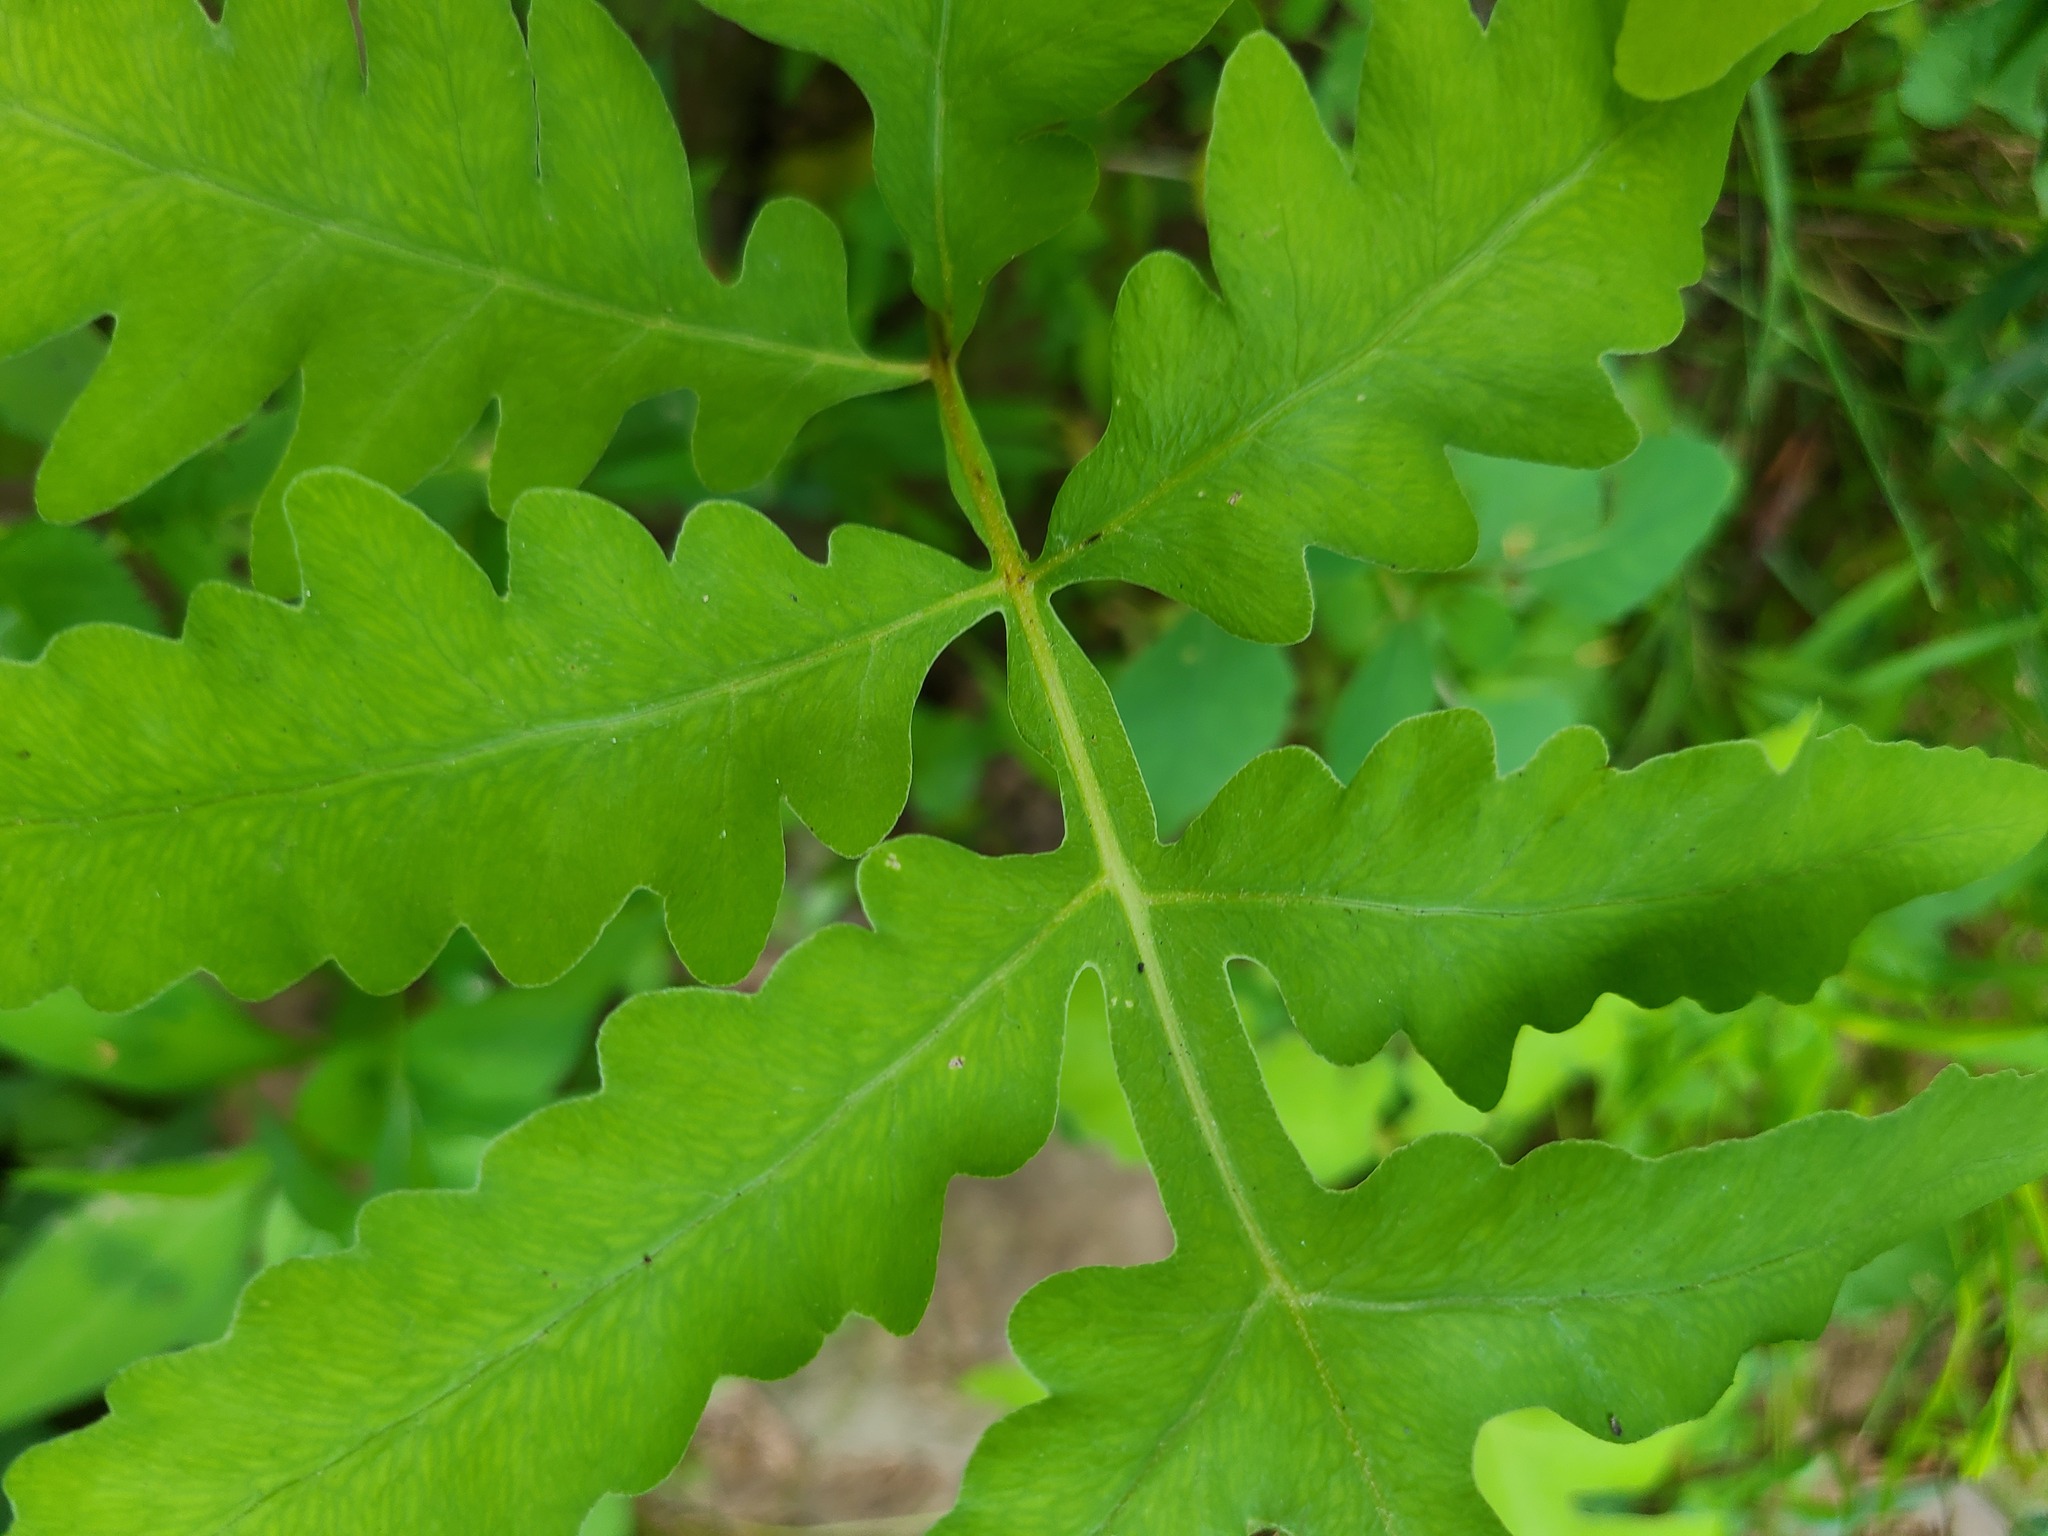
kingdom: Plantae
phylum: Tracheophyta
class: Polypodiopsida
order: Polypodiales
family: Onocleaceae
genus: Onoclea
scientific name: Onoclea sensibilis
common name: Sensitive fern
